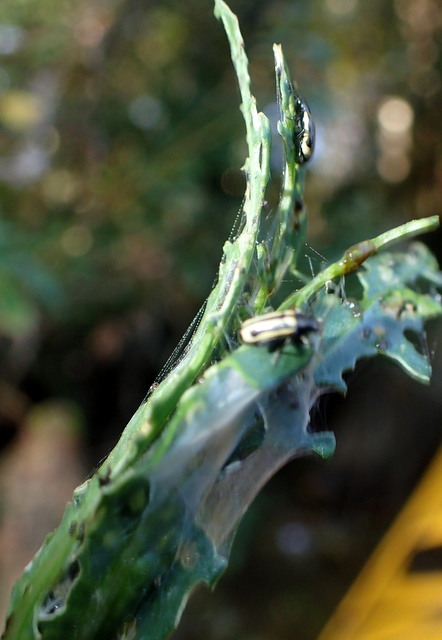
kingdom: Animalia
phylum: Arthropoda
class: Insecta
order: Coleoptera
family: Chrysomelidae
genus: Agasicles
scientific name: Agasicles hygrophila
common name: Alligatorweed flea beetle
